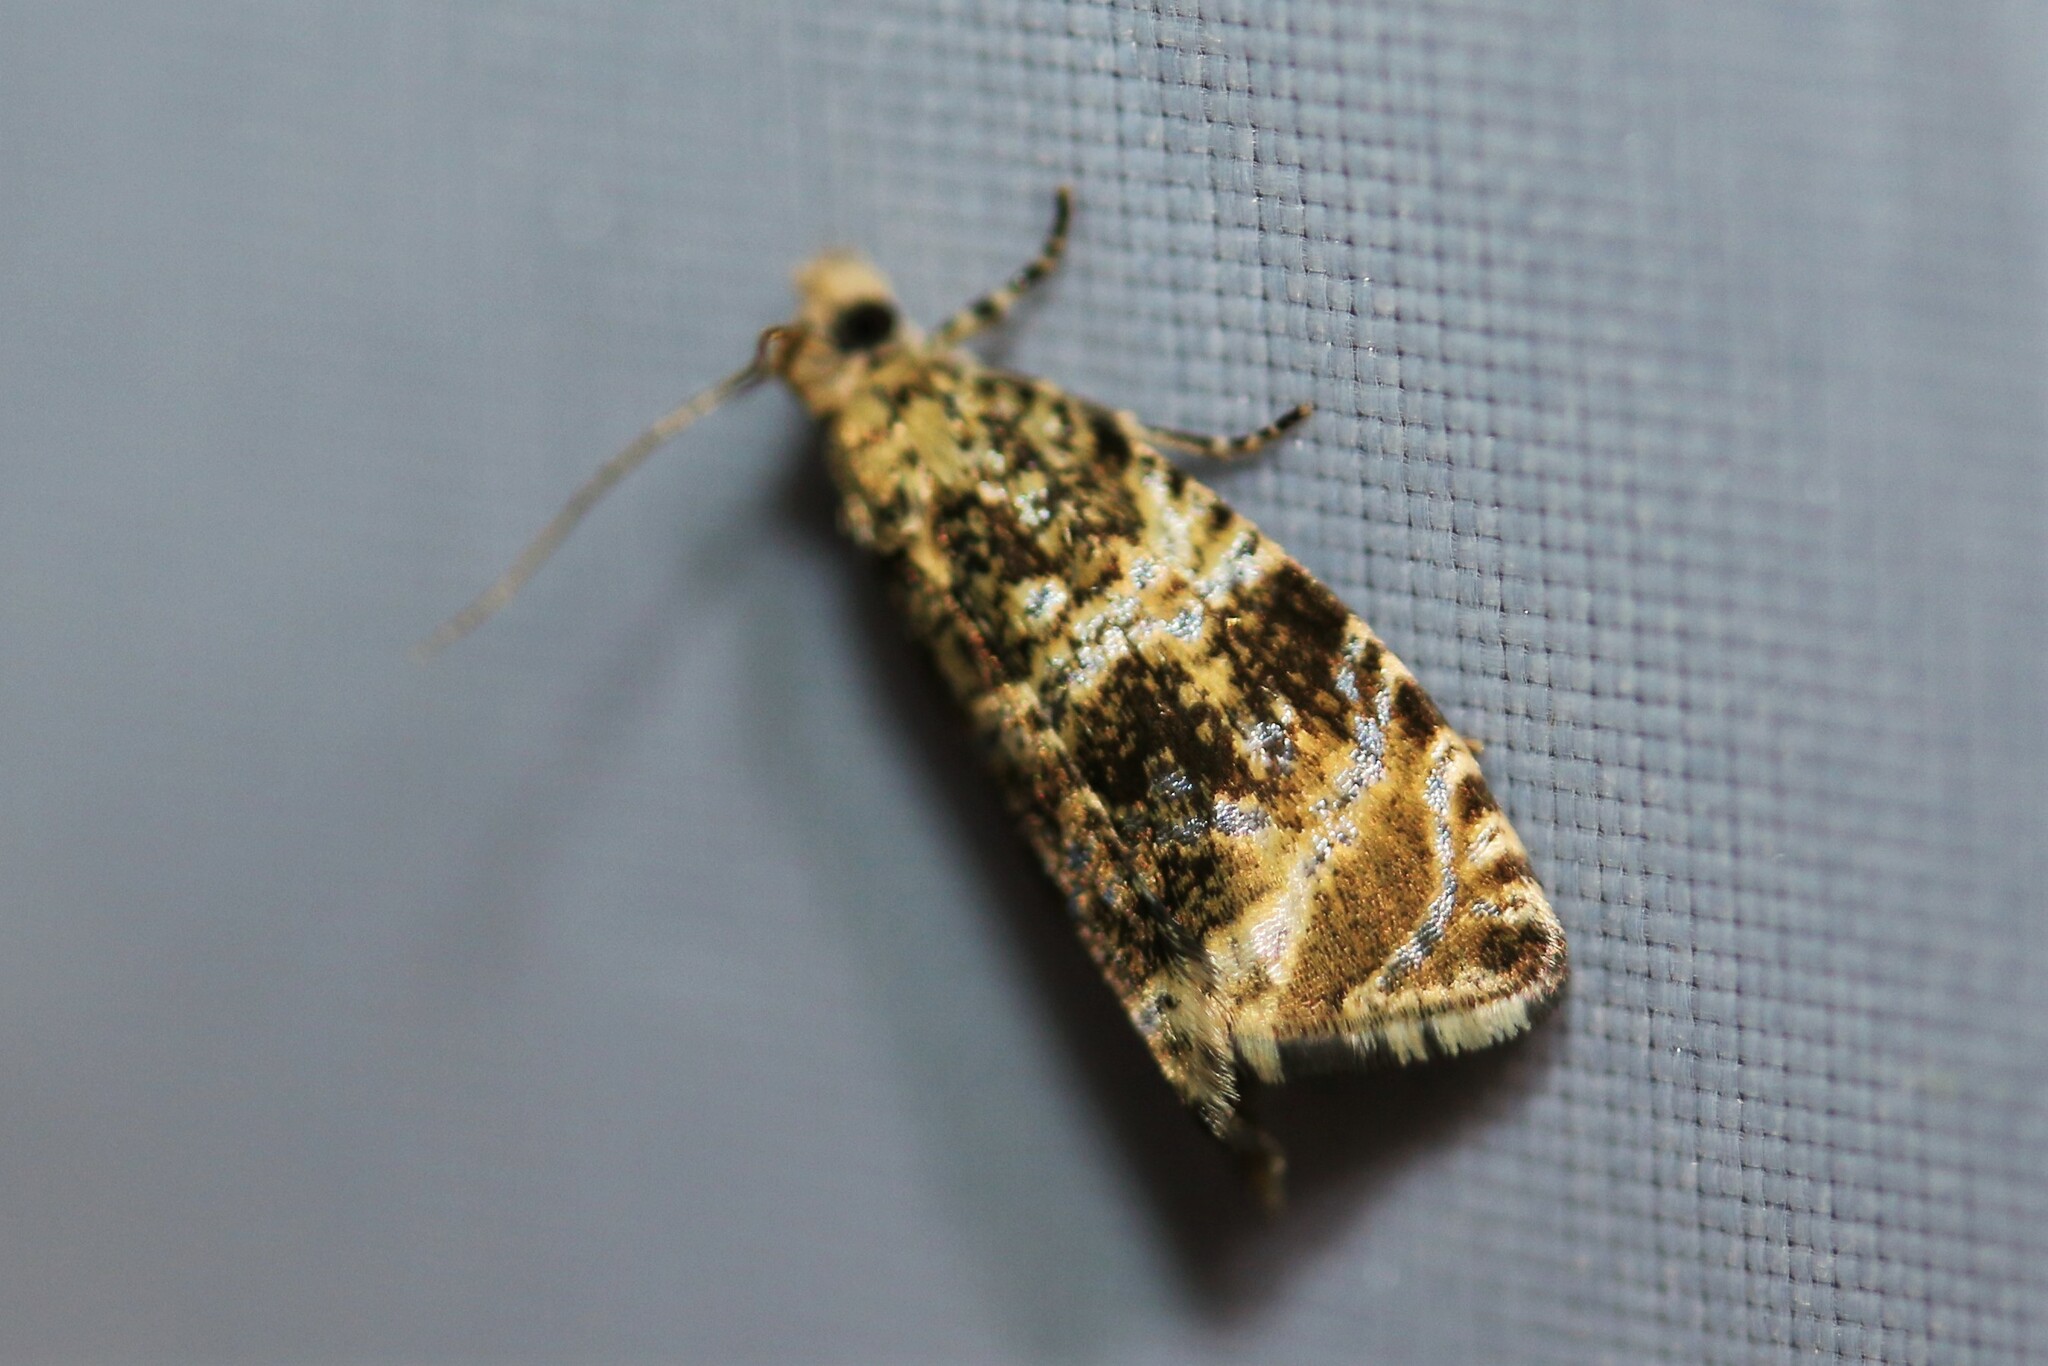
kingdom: Animalia
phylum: Arthropoda
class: Insecta
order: Lepidoptera
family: Tortricidae
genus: Syricoris
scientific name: Syricoris lacunana
